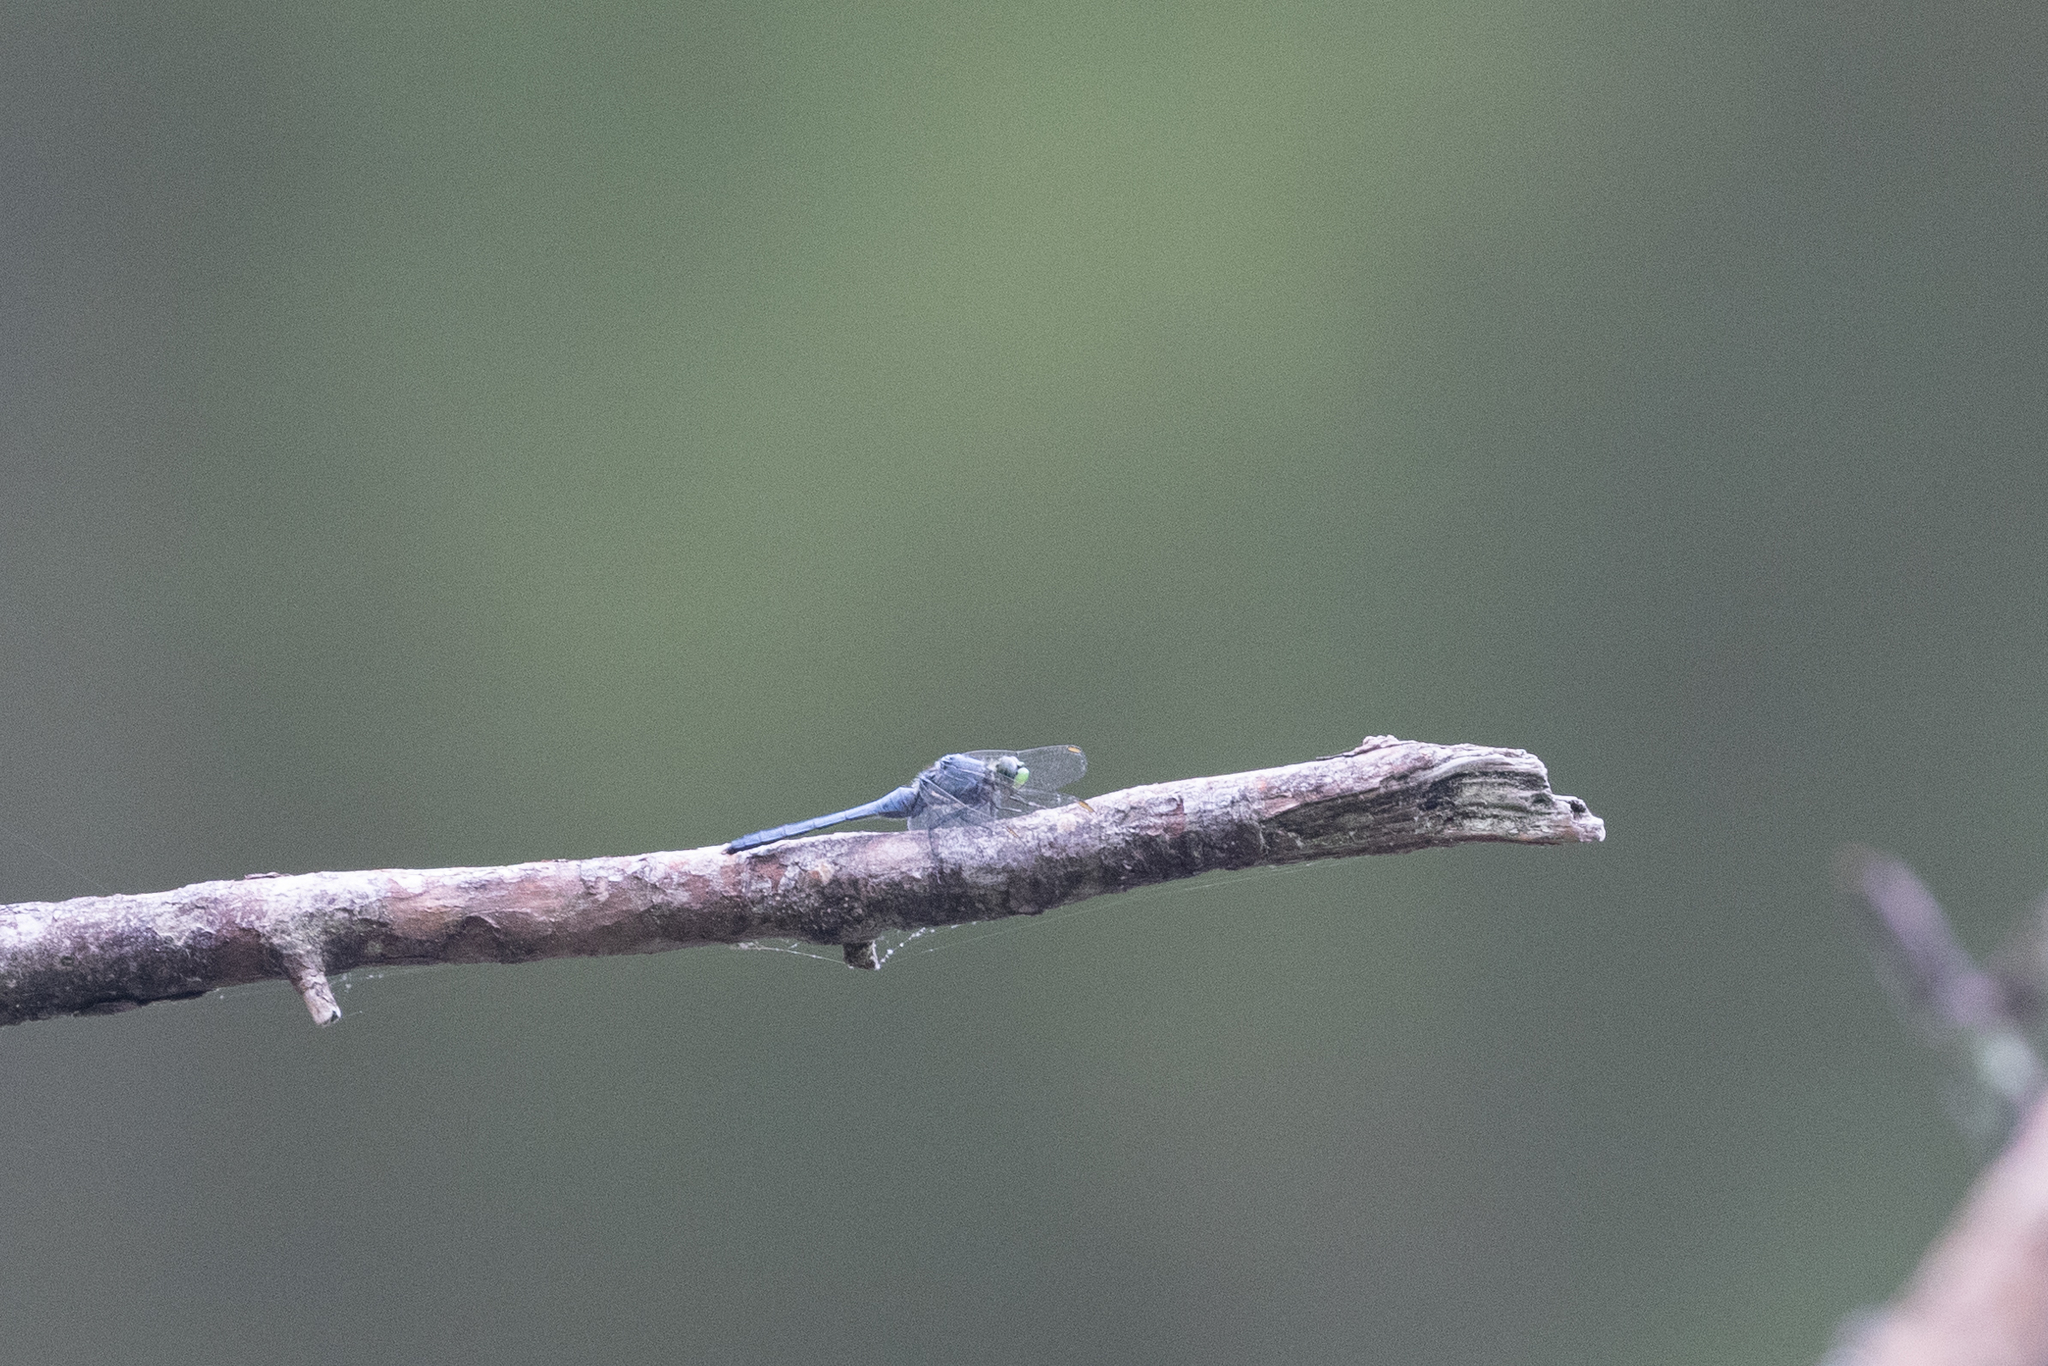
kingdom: Animalia
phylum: Arthropoda
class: Insecta
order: Odonata
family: Libellulidae
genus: Erythemis
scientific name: Erythemis simplicicollis
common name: Eastern pondhawk
